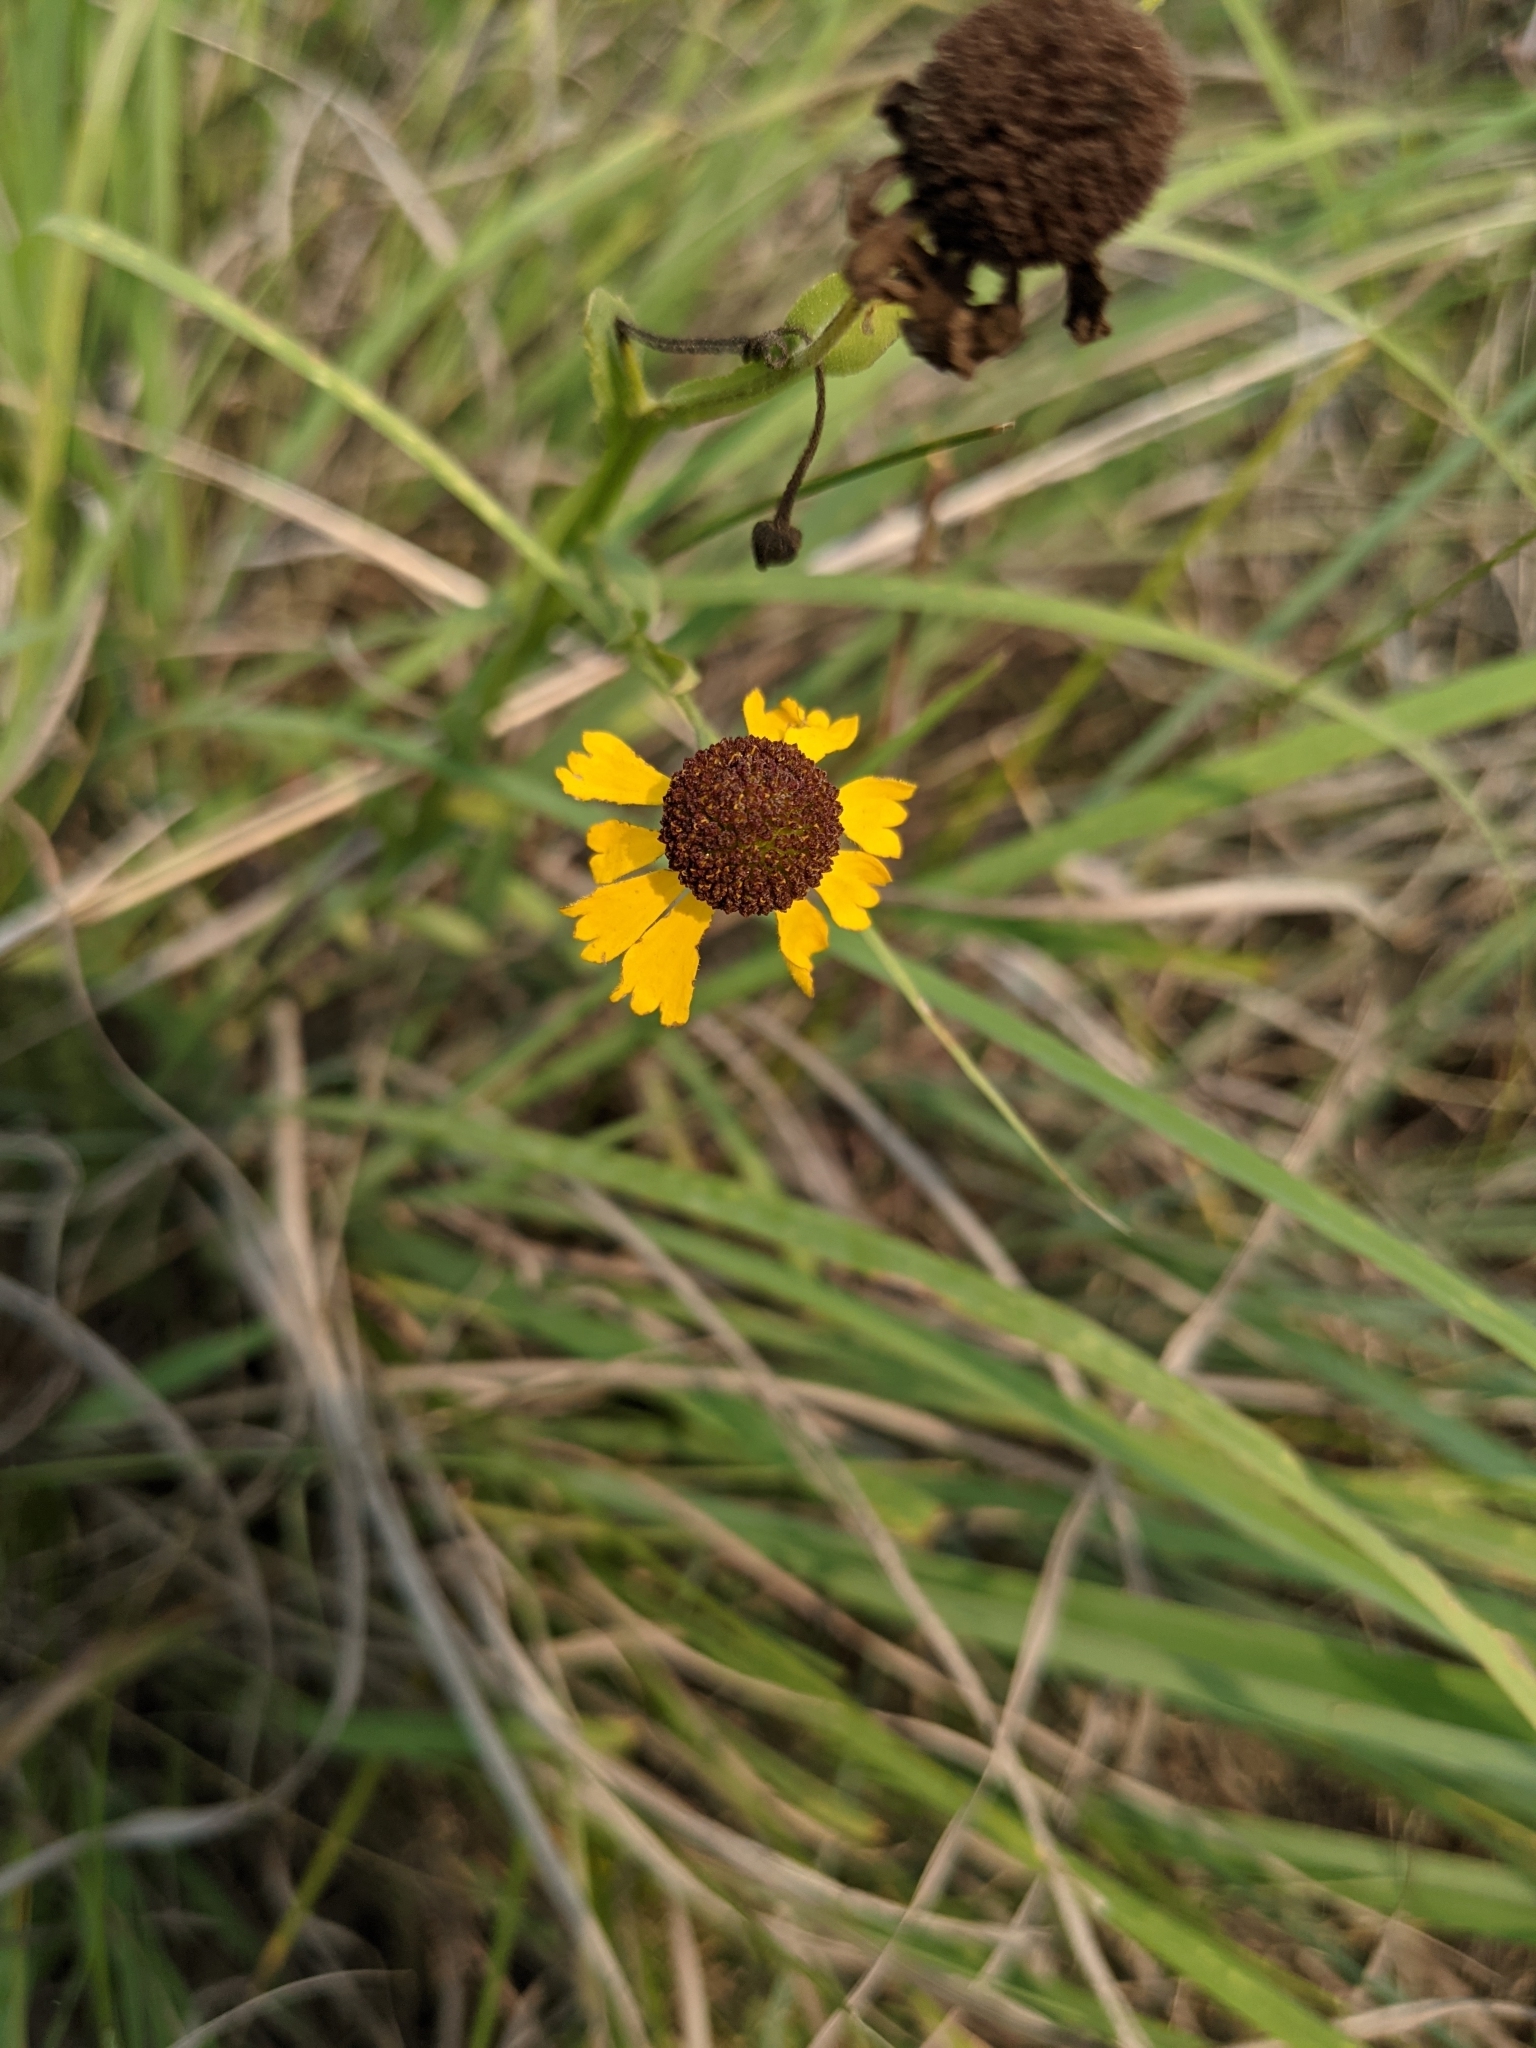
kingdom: Plantae
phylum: Tracheophyta
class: Magnoliopsida
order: Asterales
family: Asteraceae
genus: Helenium
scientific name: Helenium flexuosum
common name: Naked-flowered sneezeweed
